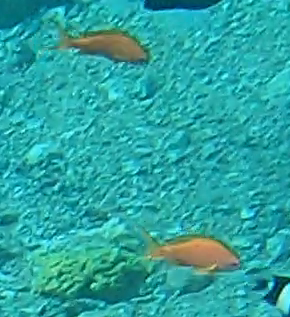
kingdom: Animalia
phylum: Chordata
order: Perciformes
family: Serranidae
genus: Pseudanthias
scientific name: Pseudanthias squamipinnis
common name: Scalefin anthias
